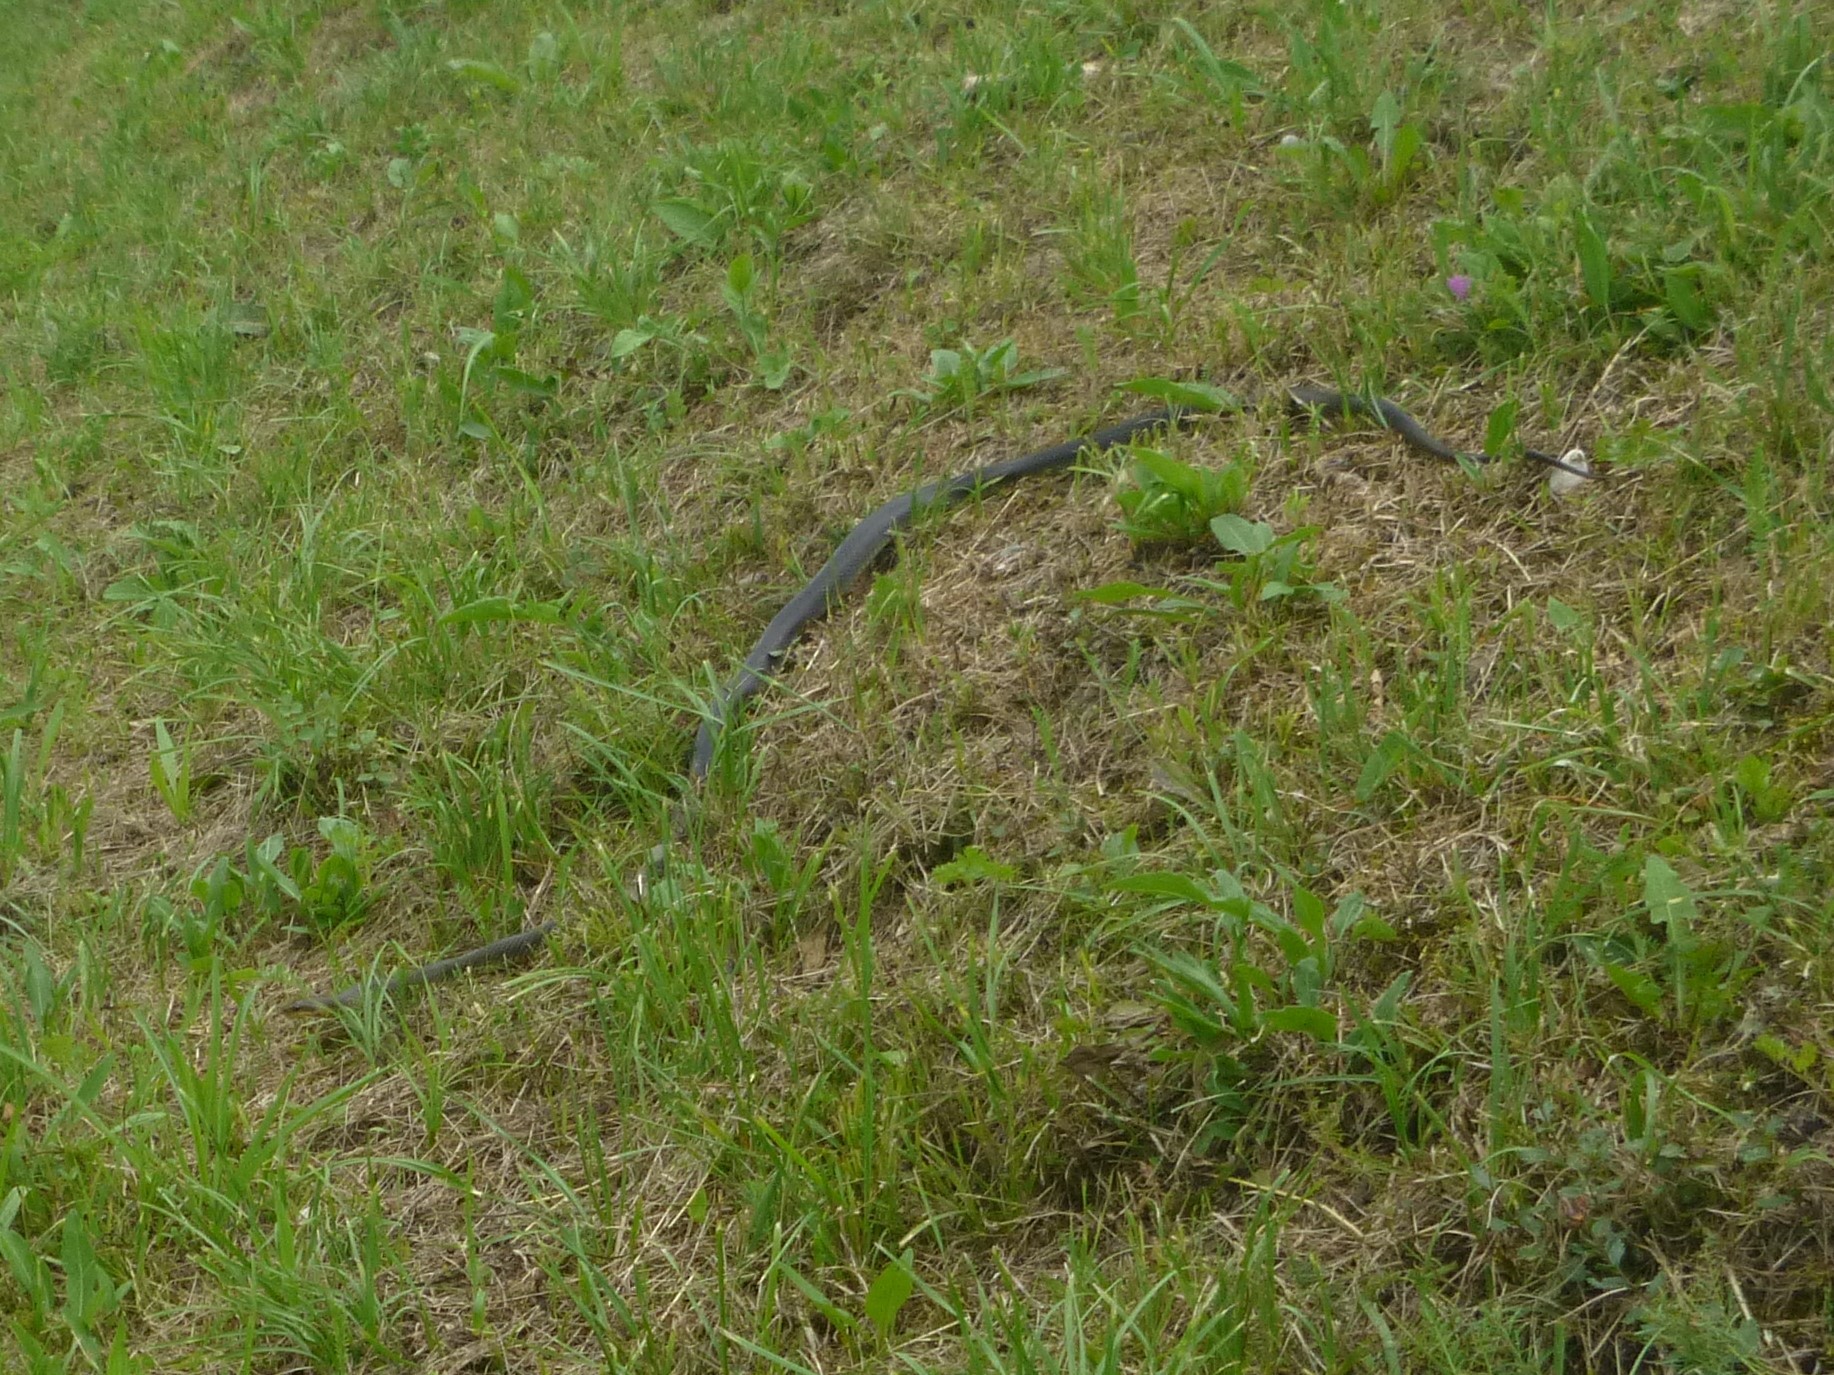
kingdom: Animalia
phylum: Chordata
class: Squamata
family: Colubridae
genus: Zamenis
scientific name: Zamenis longissimus
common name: Aesculapean snake
